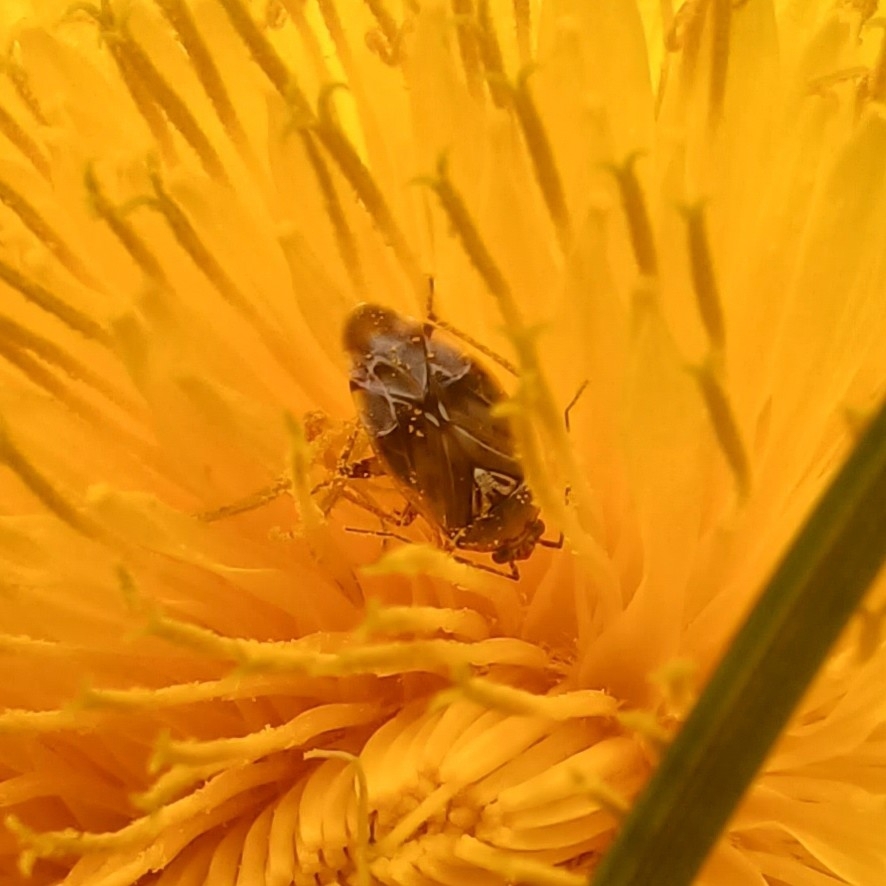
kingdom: Animalia
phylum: Arthropoda
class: Insecta
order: Hemiptera
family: Miridae
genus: Lygus
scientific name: Lygus lineolaris
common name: North american tarnished plant bug
